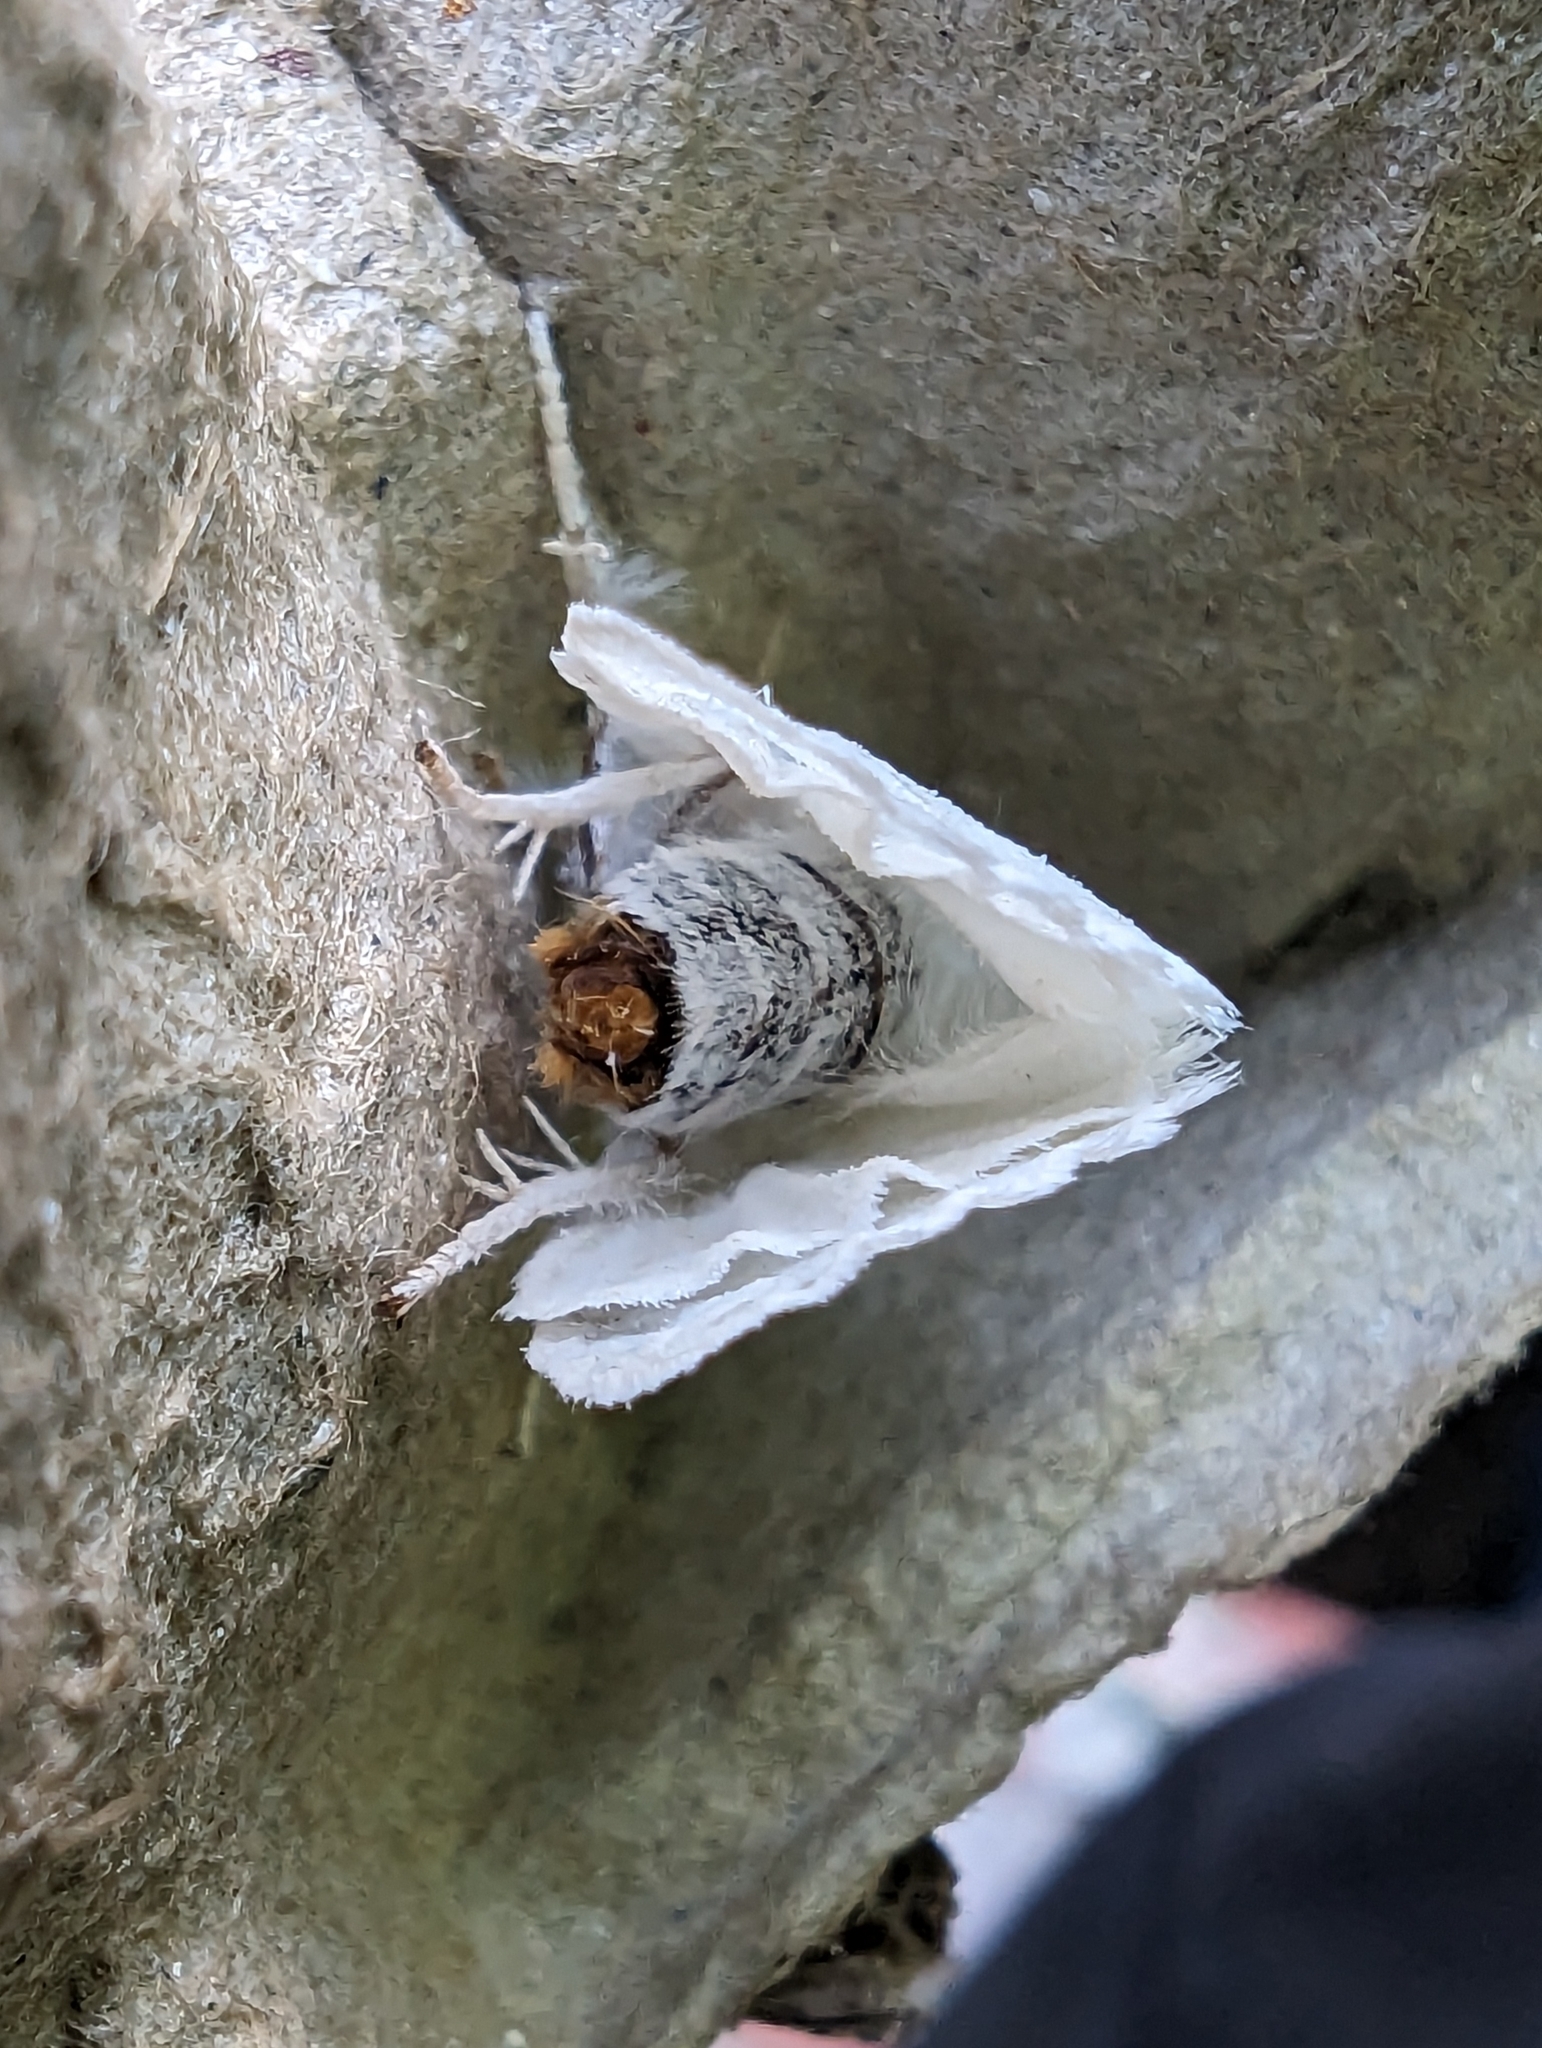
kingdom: Animalia
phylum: Arthropoda
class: Insecta
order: Lepidoptera
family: Erebidae
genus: Sphrageidus
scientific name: Sphrageidus similis
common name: Yellow-tail
